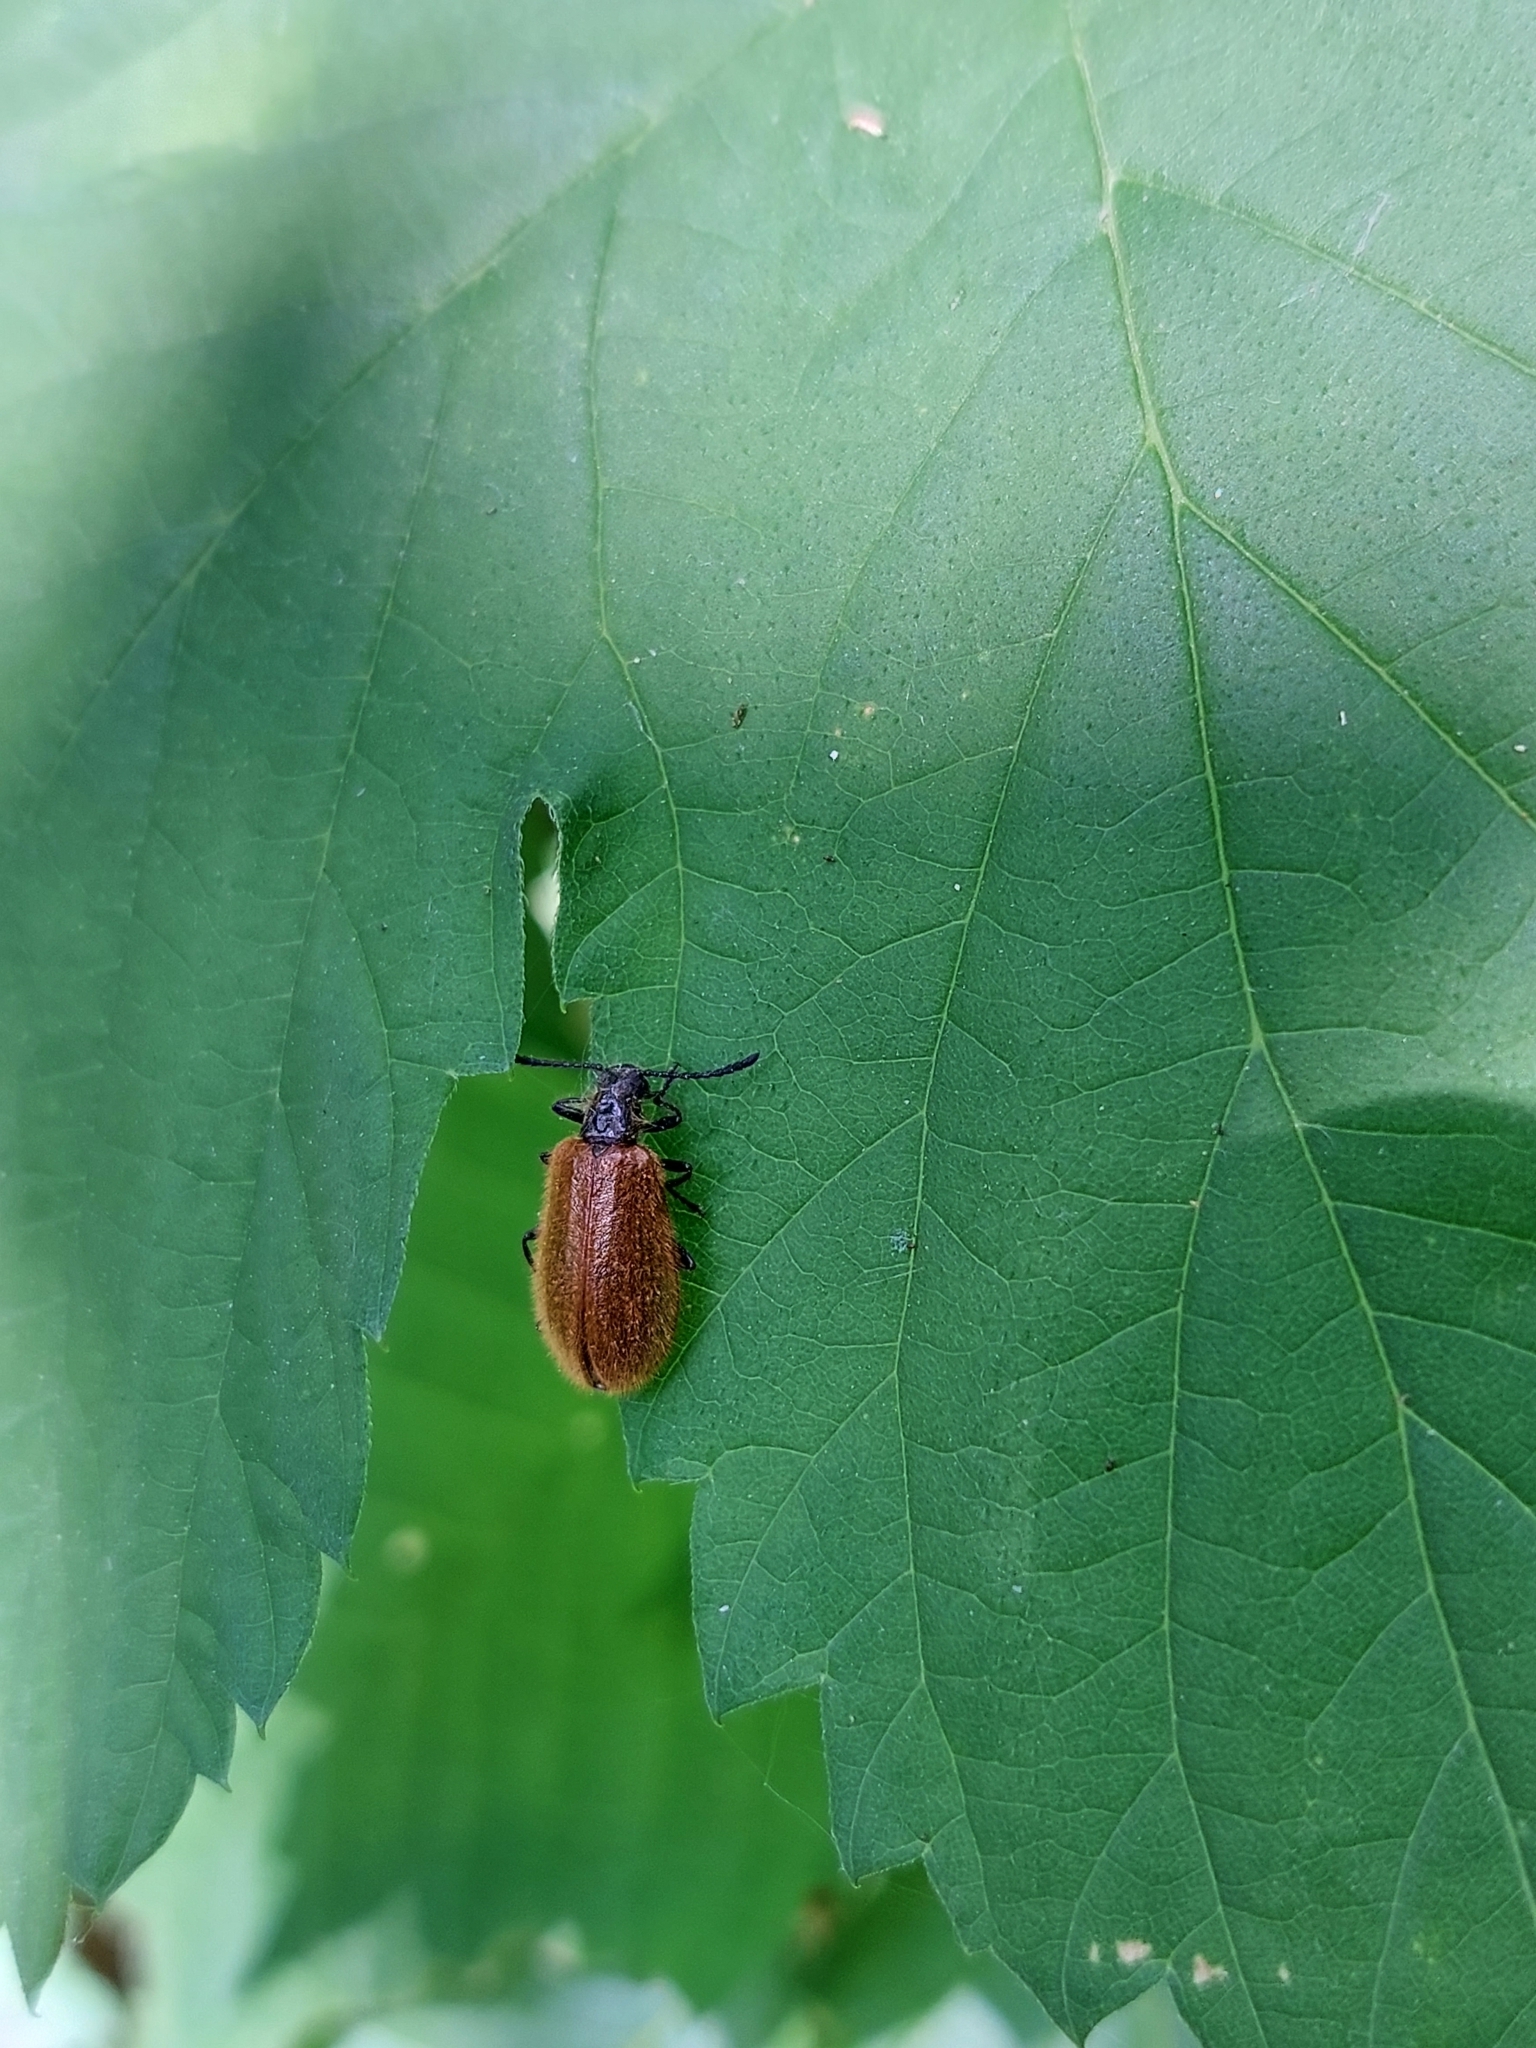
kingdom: Animalia
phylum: Arthropoda
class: Insecta
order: Coleoptera
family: Tenebrionidae
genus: Lagria
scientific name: Lagria hirta
